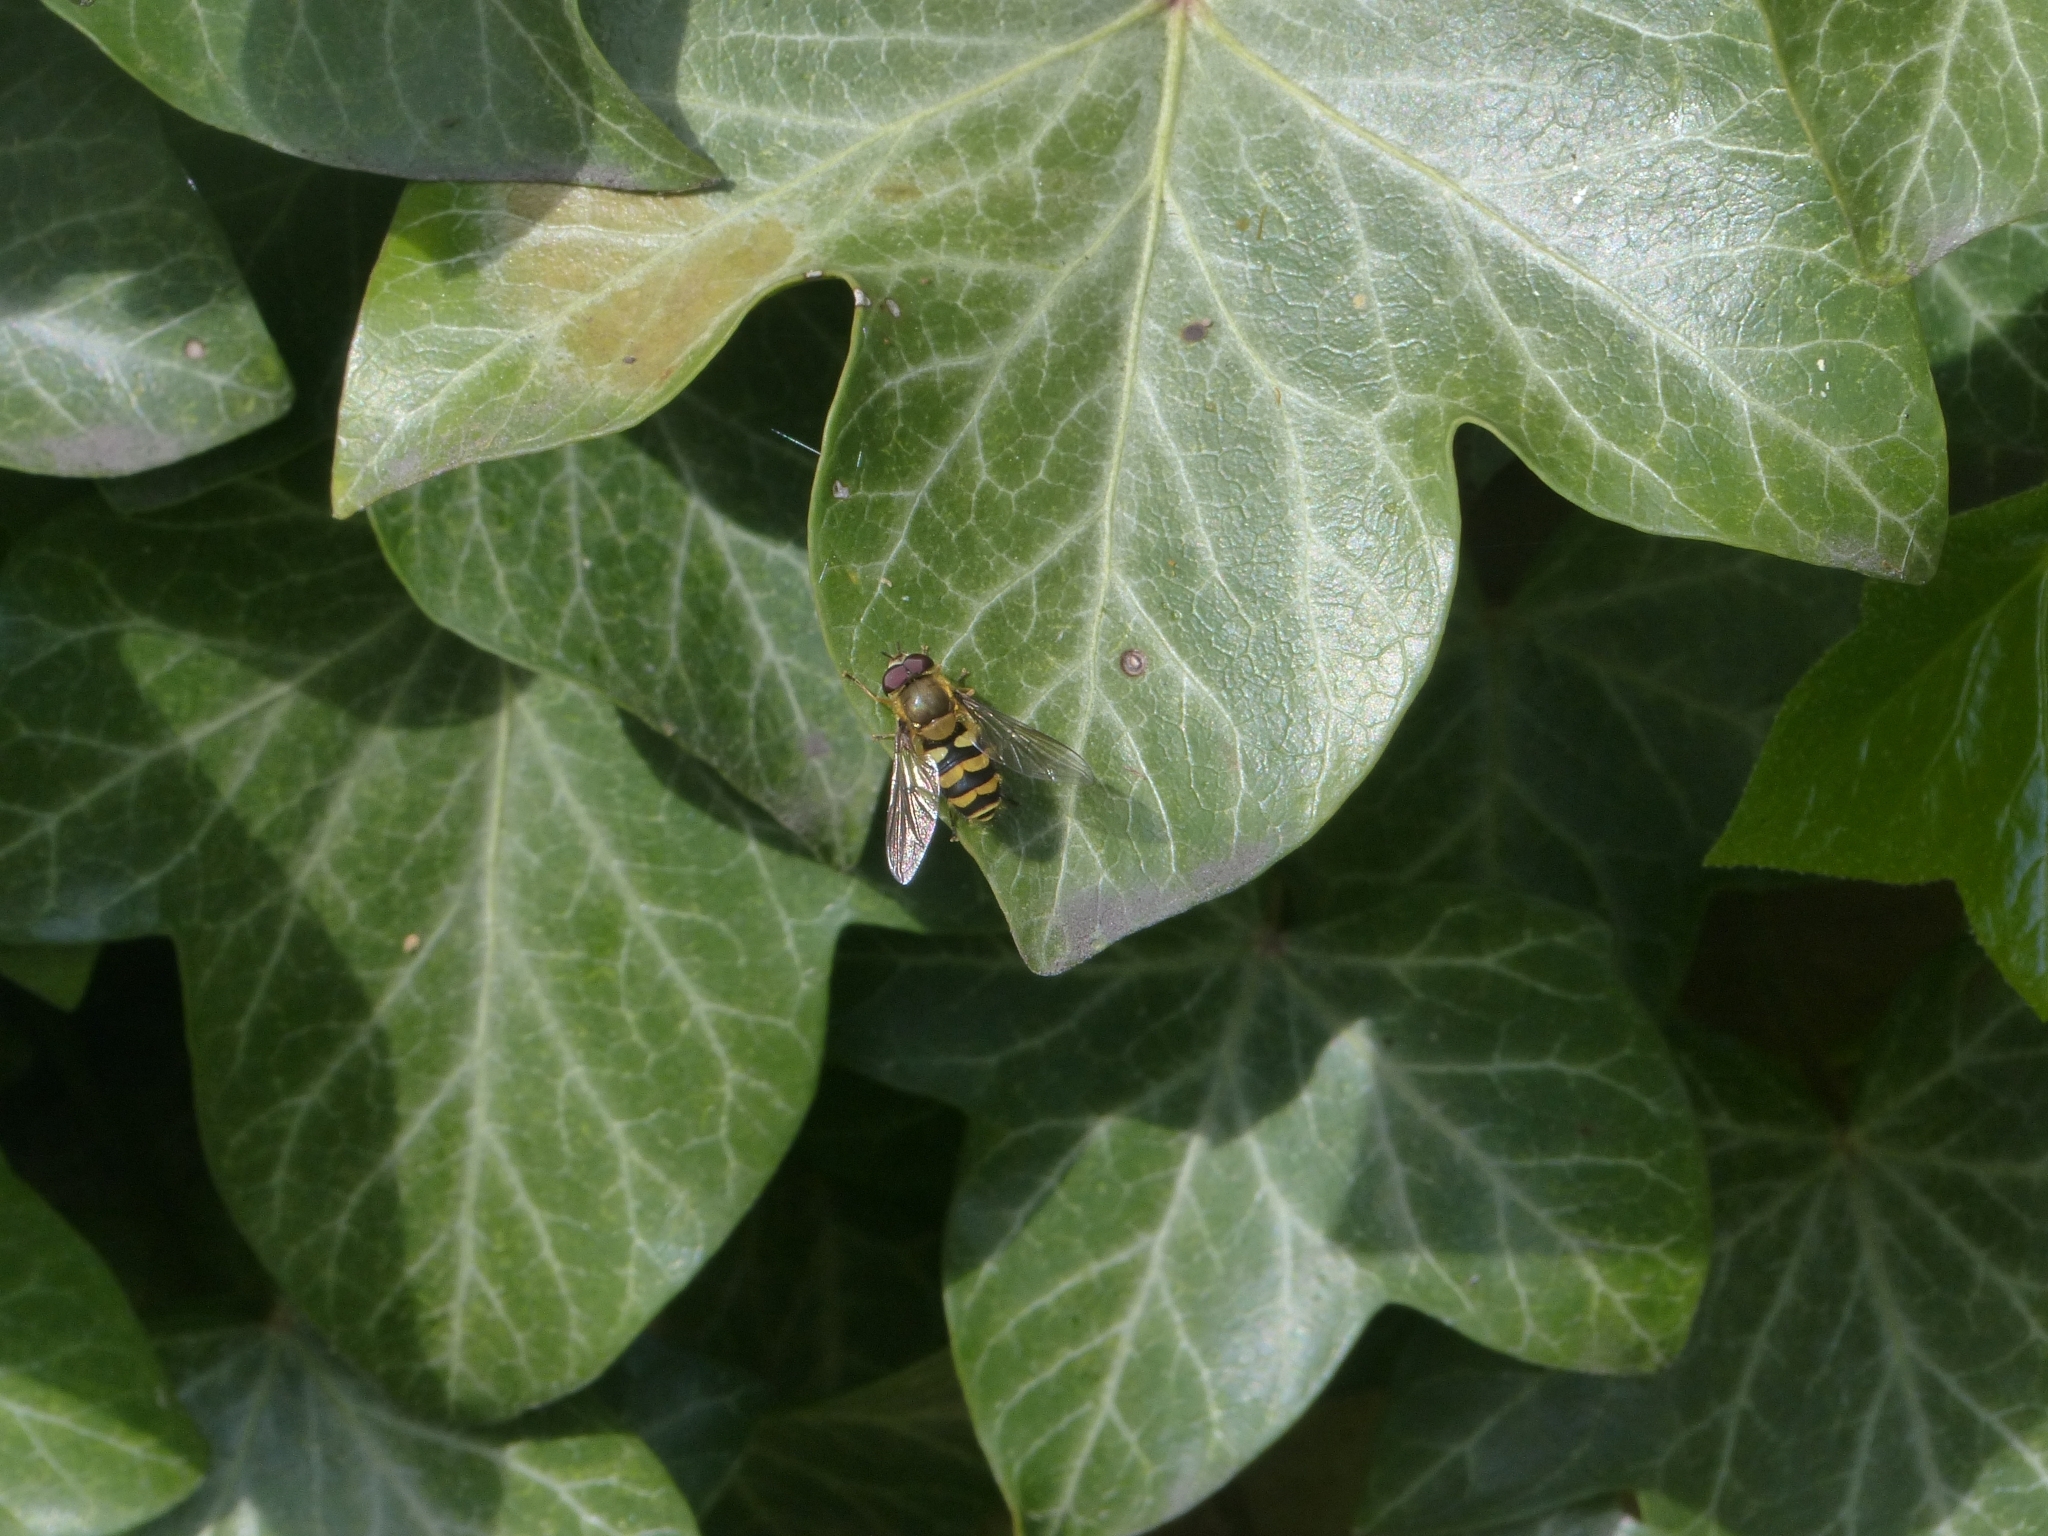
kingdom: Animalia
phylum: Arthropoda
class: Insecta
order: Diptera
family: Syrphidae
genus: Syrphus
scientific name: Syrphus
